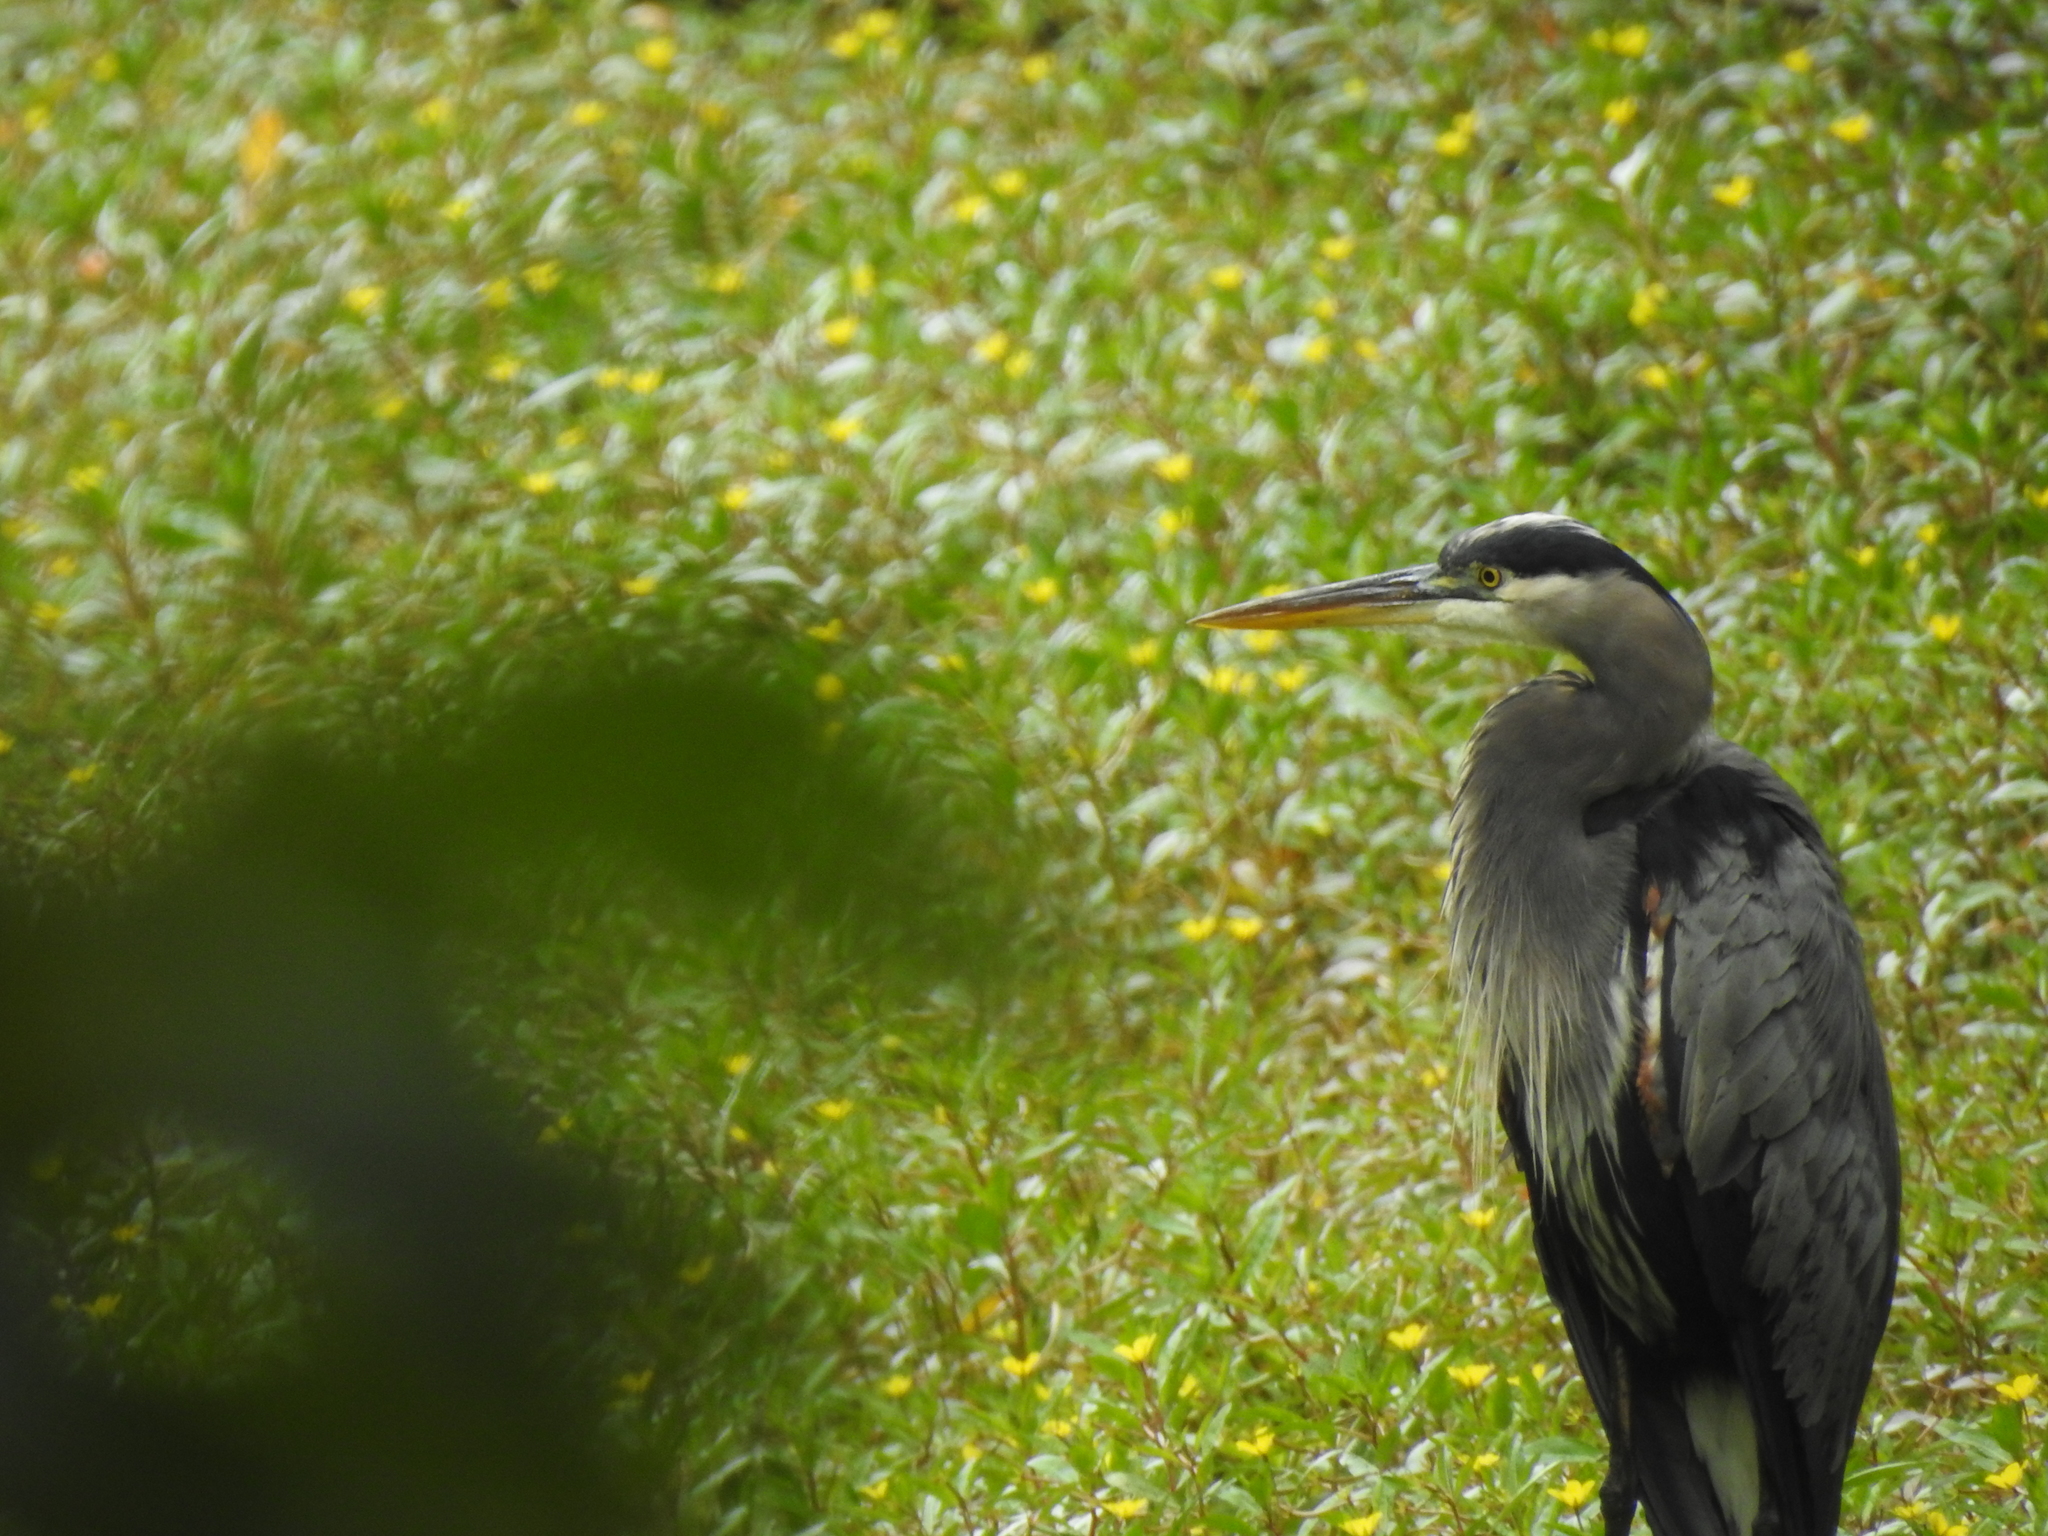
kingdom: Animalia
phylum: Chordata
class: Aves
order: Pelecaniformes
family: Ardeidae
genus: Ardea
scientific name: Ardea herodias
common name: Great blue heron
